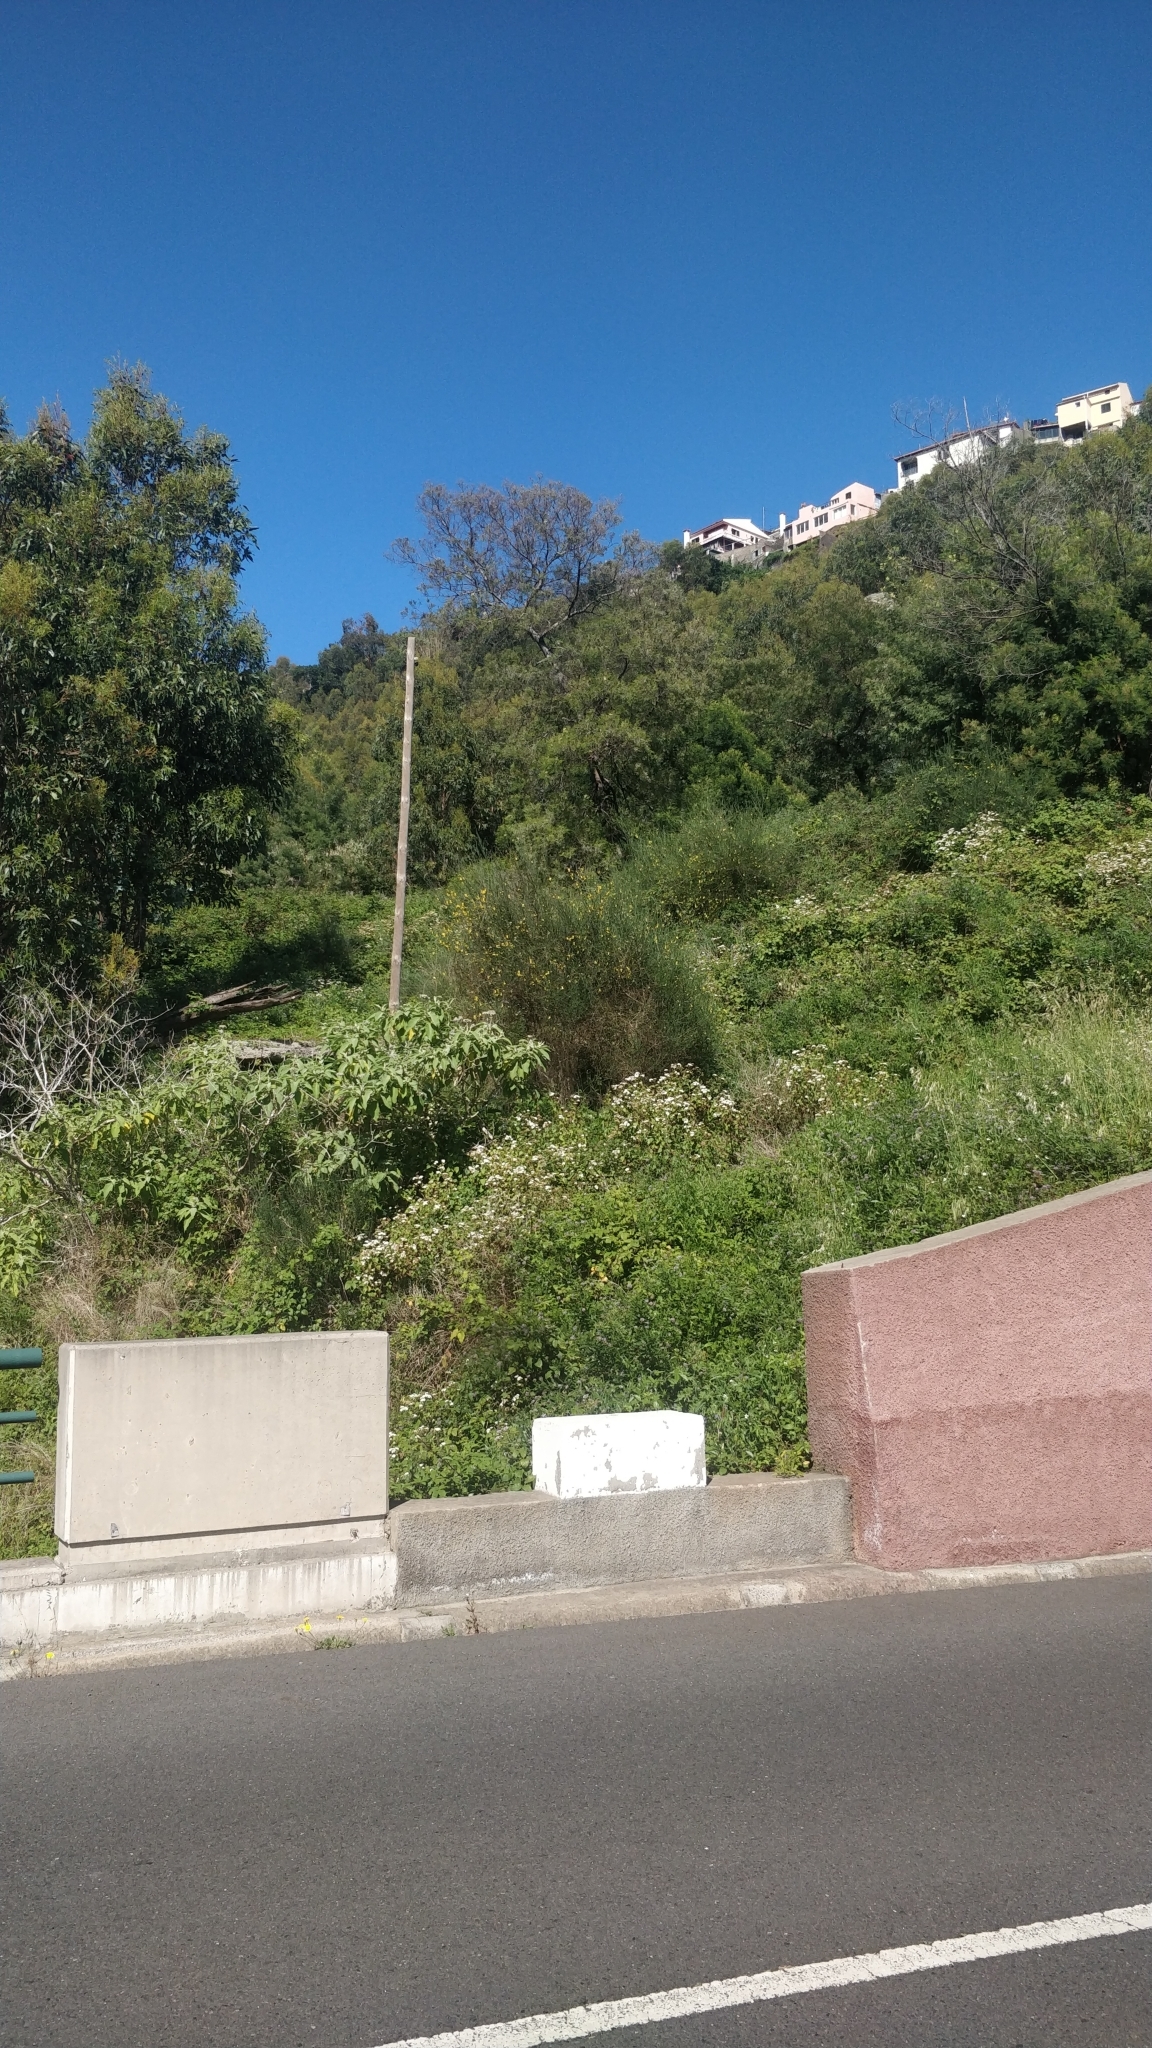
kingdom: Plantae
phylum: Tracheophyta
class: Magnoliopsida
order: Fabales
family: Fabaceae
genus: Cytisus
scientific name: Cytisus scoparius
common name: Scotch broom
